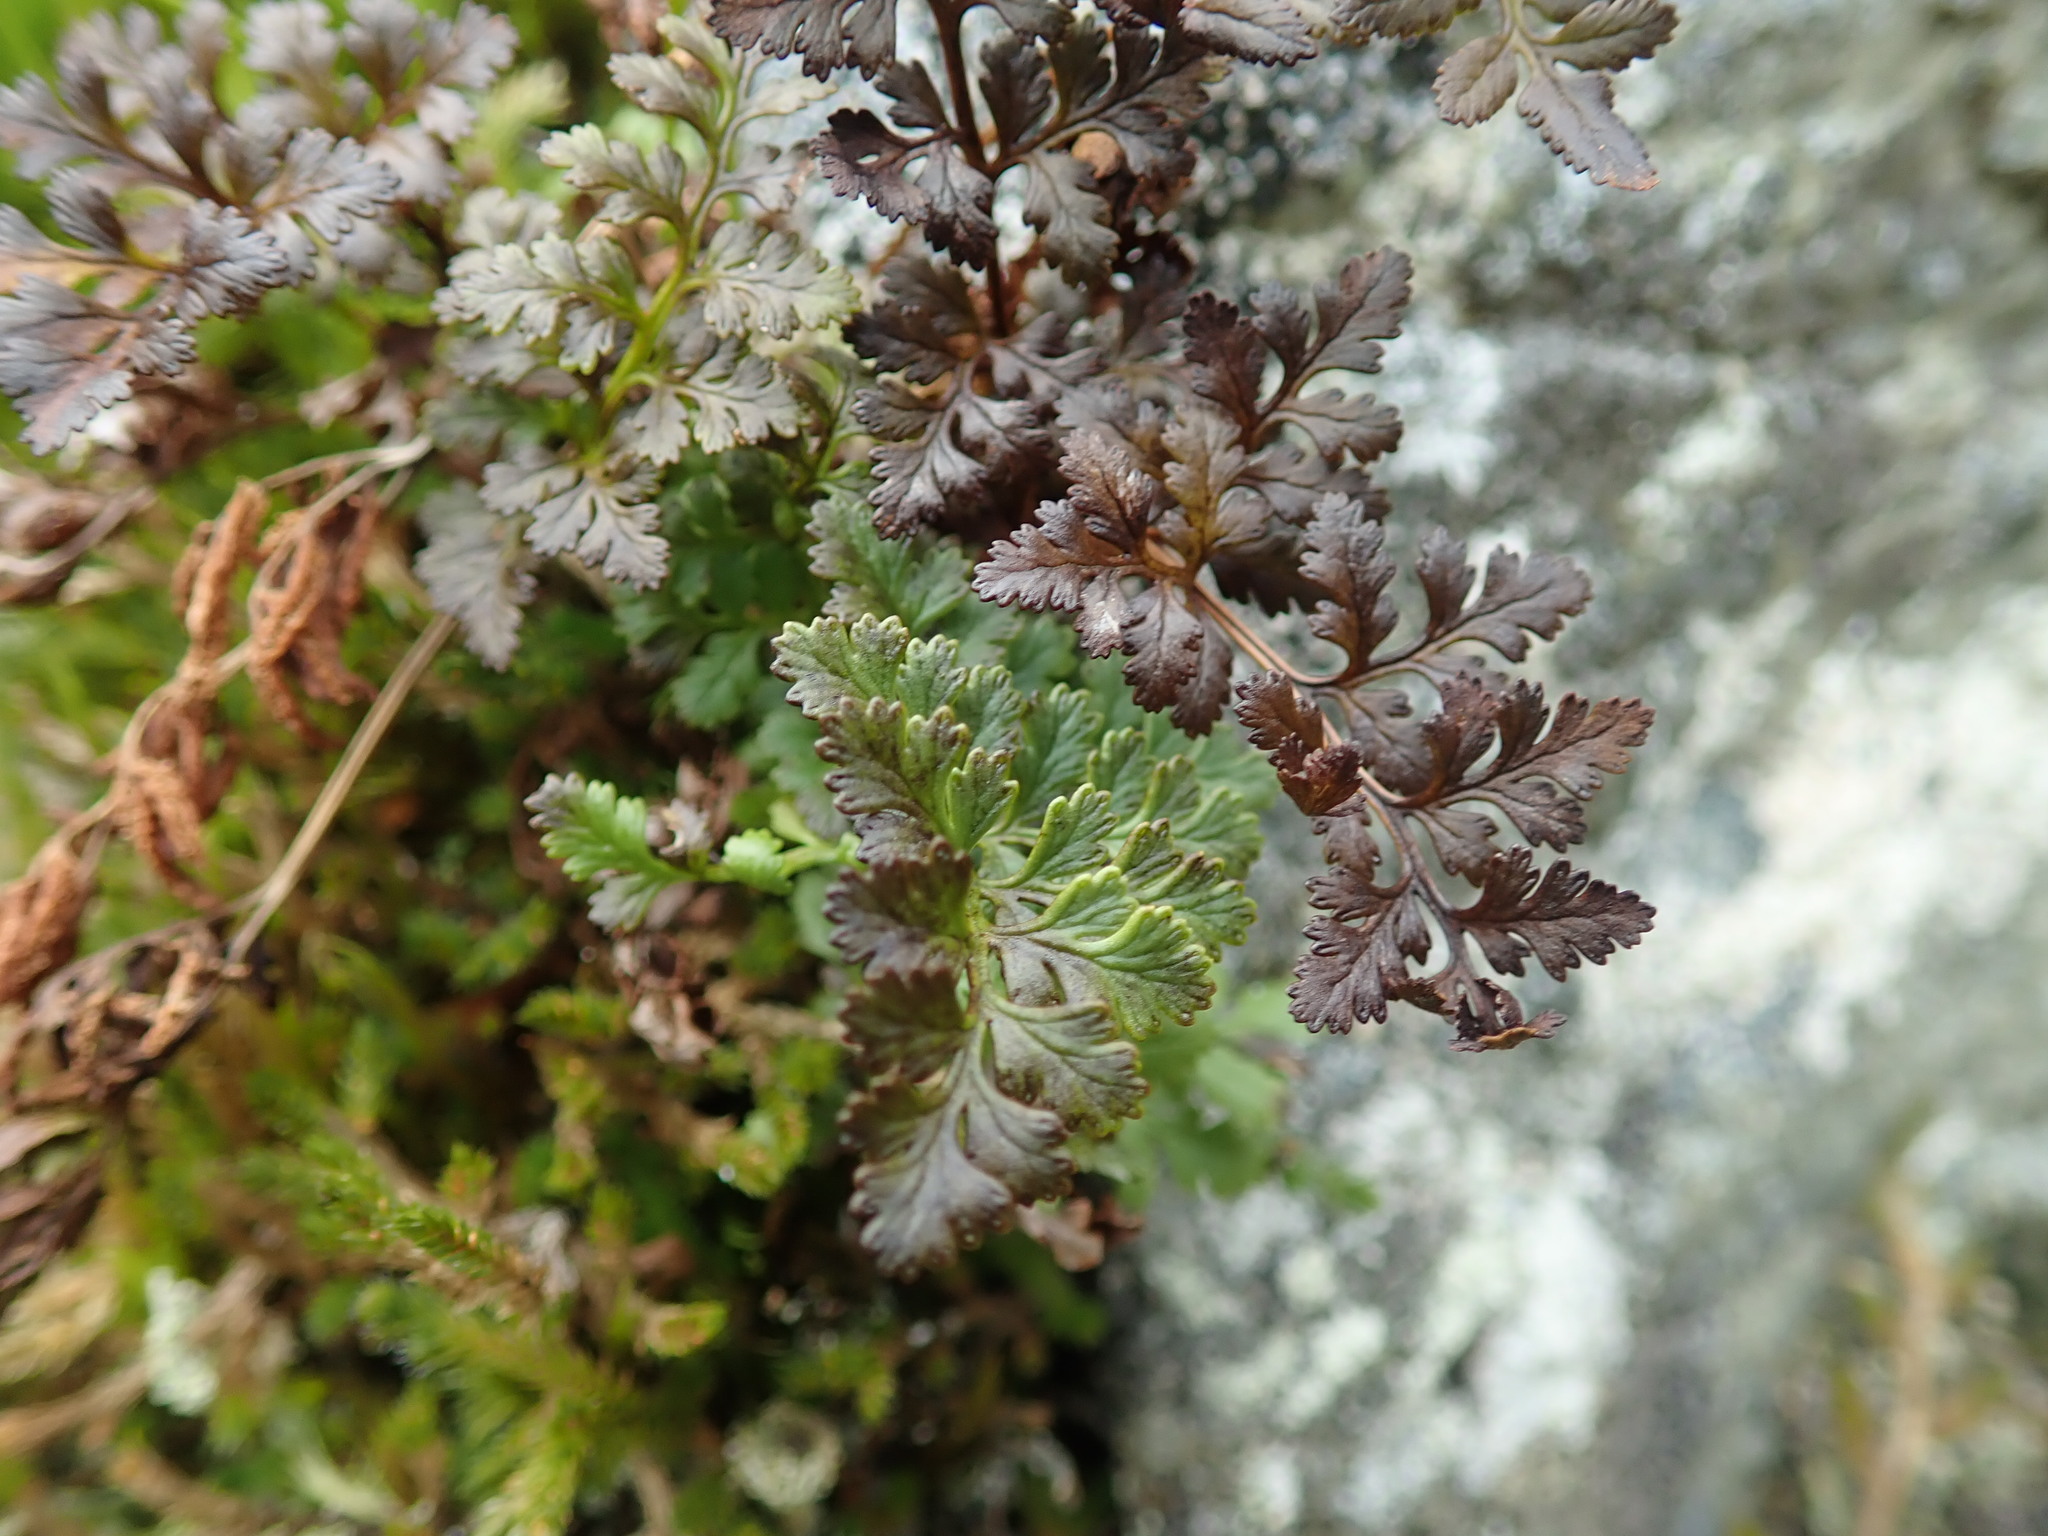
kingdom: Plantae
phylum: Tracheophyta
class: Polypodiopsida
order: Polypodiales
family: Pteridaceae
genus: Cryptogramma
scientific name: Cryptogramma acrostichoides
